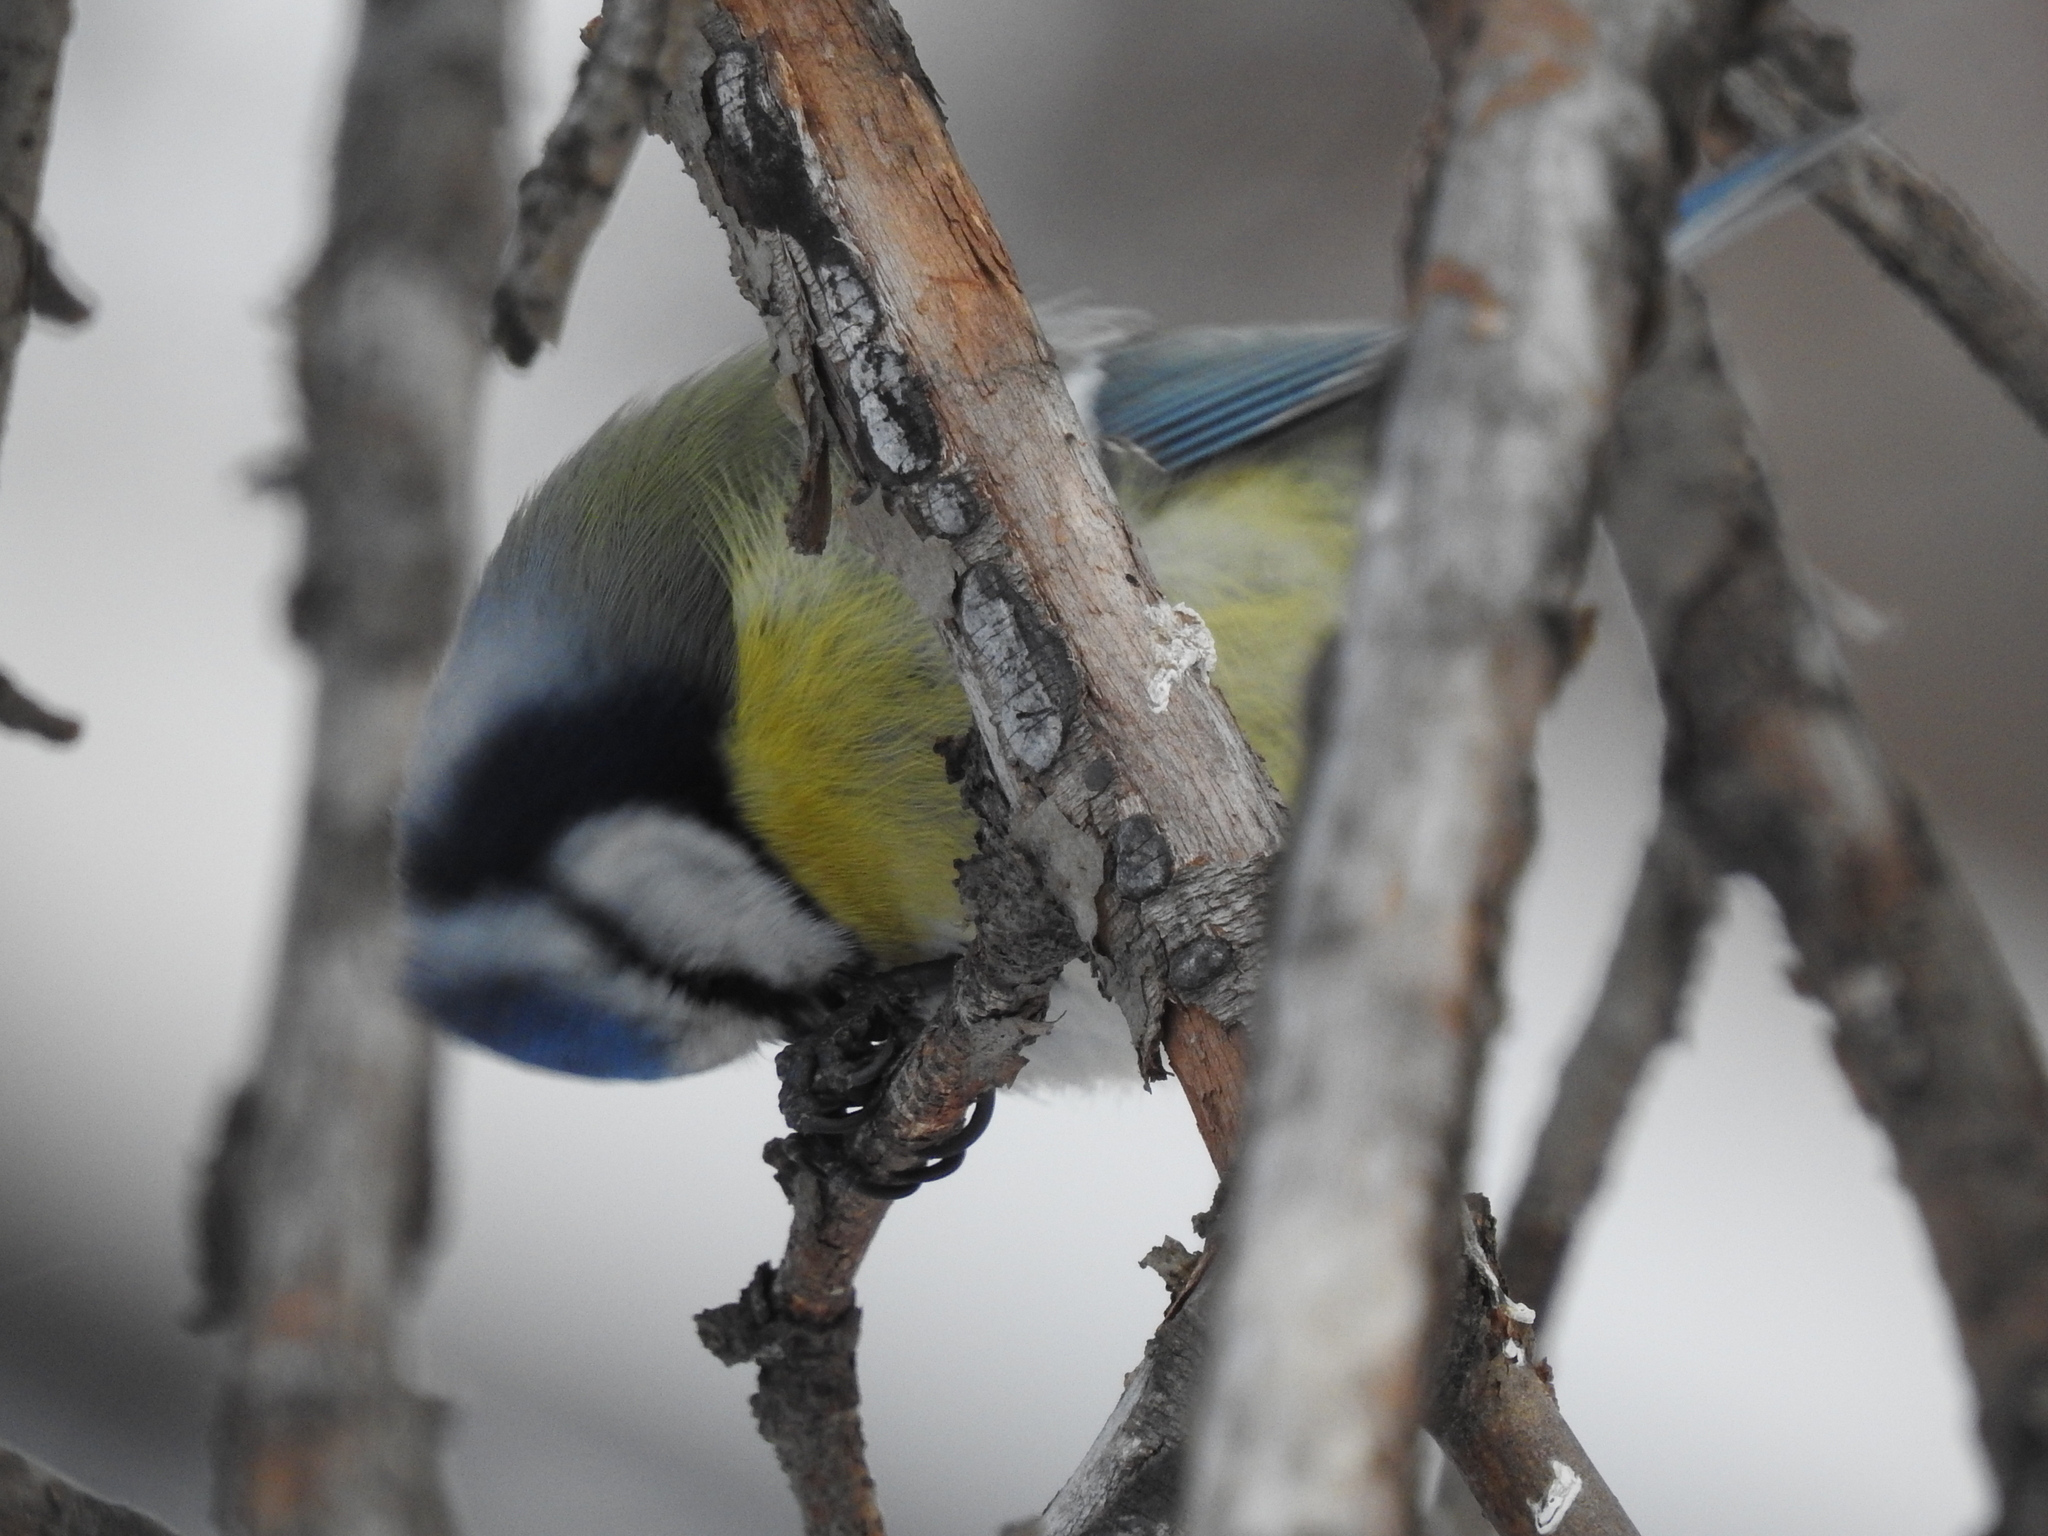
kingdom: Animalia
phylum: Chordata
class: Aves
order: Passeriformes
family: Paridae
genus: Cyanistes
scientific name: Cyanistes caeruleus
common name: Eurasian blue tit
